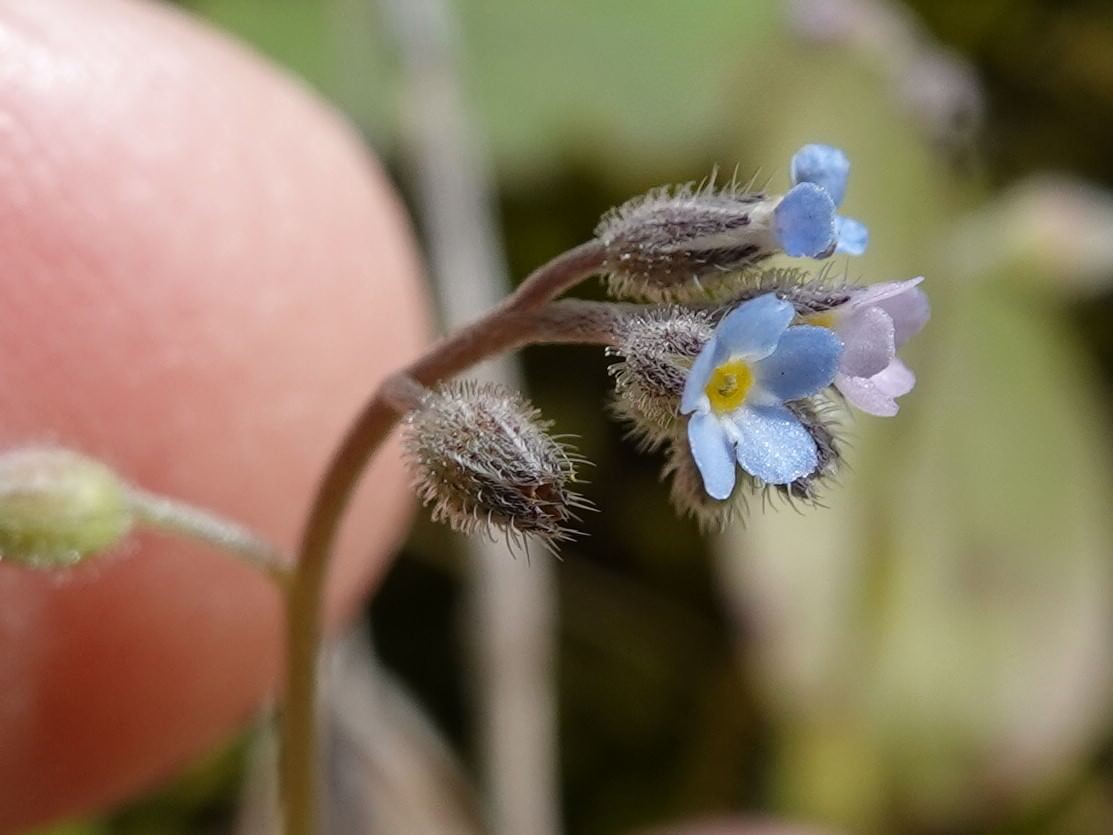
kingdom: Plantae
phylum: Tracheophyta
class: Magnoliopsida
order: Boraginales
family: Boraginaceae
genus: Myosotis
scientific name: Myosotis arvensis
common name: Field forget-me-not
